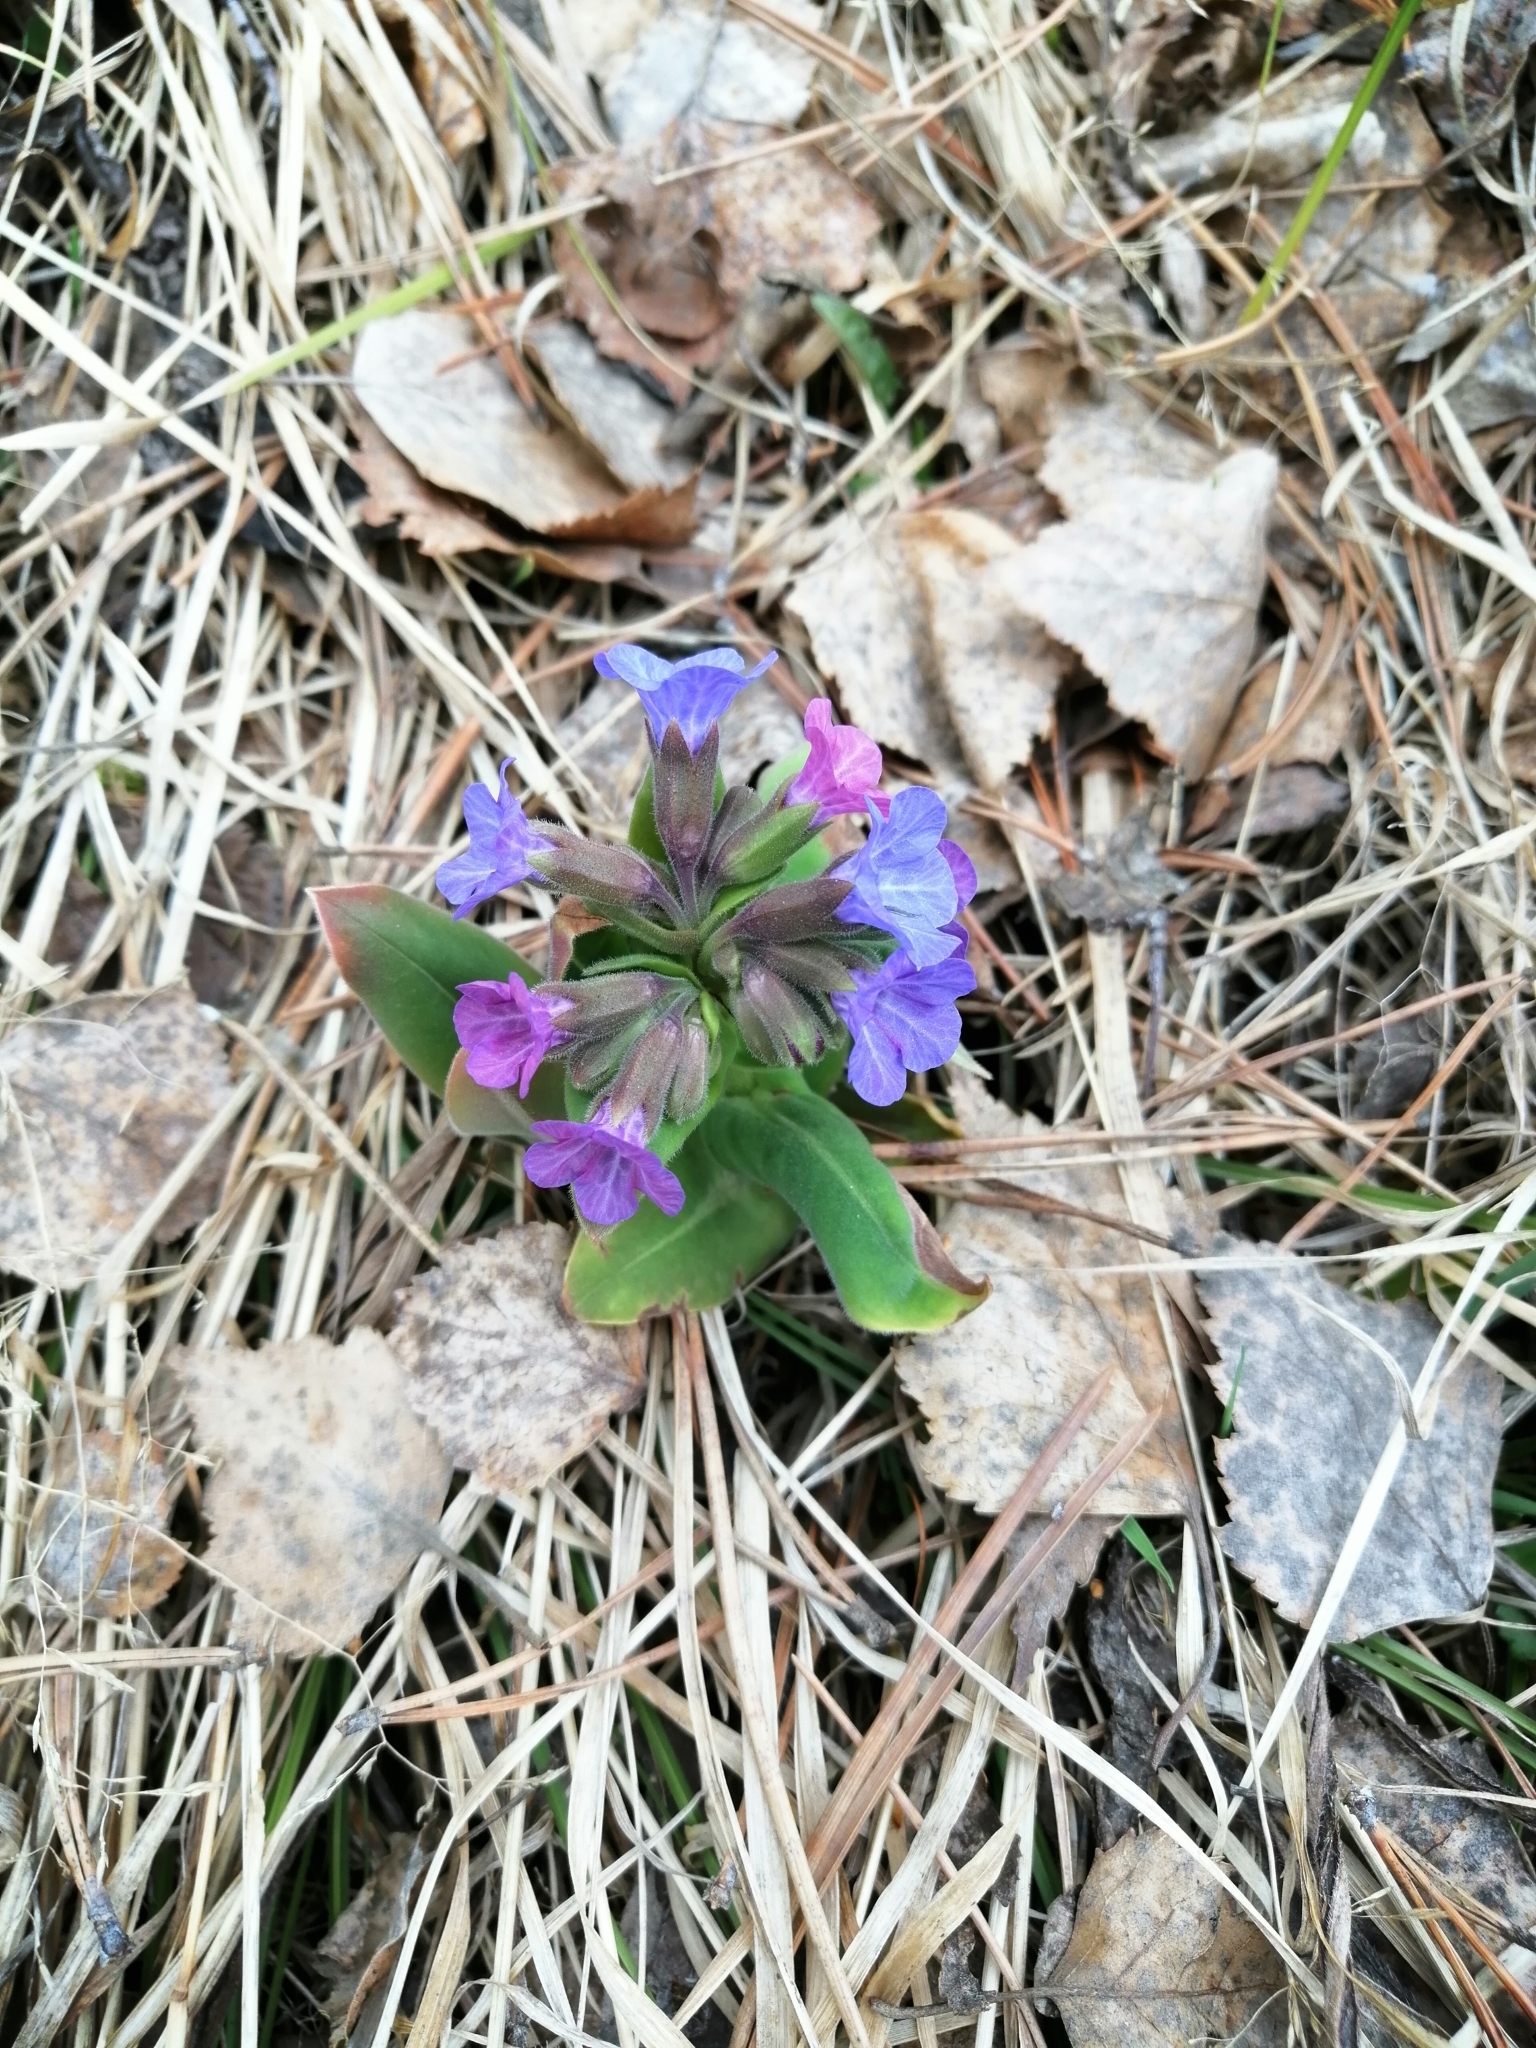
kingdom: Plantae
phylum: Tracheophyta
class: Magnoliopsida
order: Boraginales
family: Boraginaceae
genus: Pulmonaria
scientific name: Pulmonaria mollis
